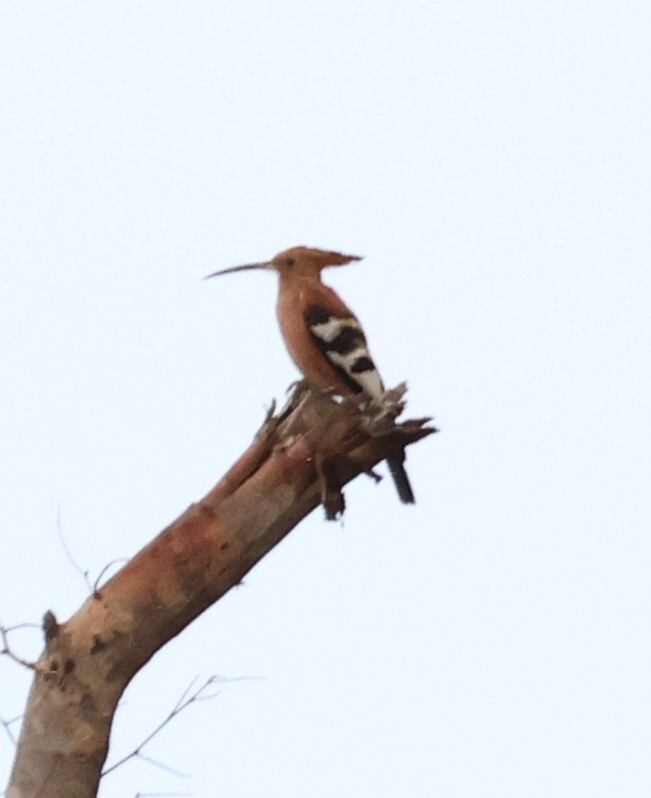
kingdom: Animalia
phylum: Chordata
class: Aves
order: Bucerotiformes
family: Upupidae
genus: Upupa
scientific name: Upupa africana
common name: African hoopoe
